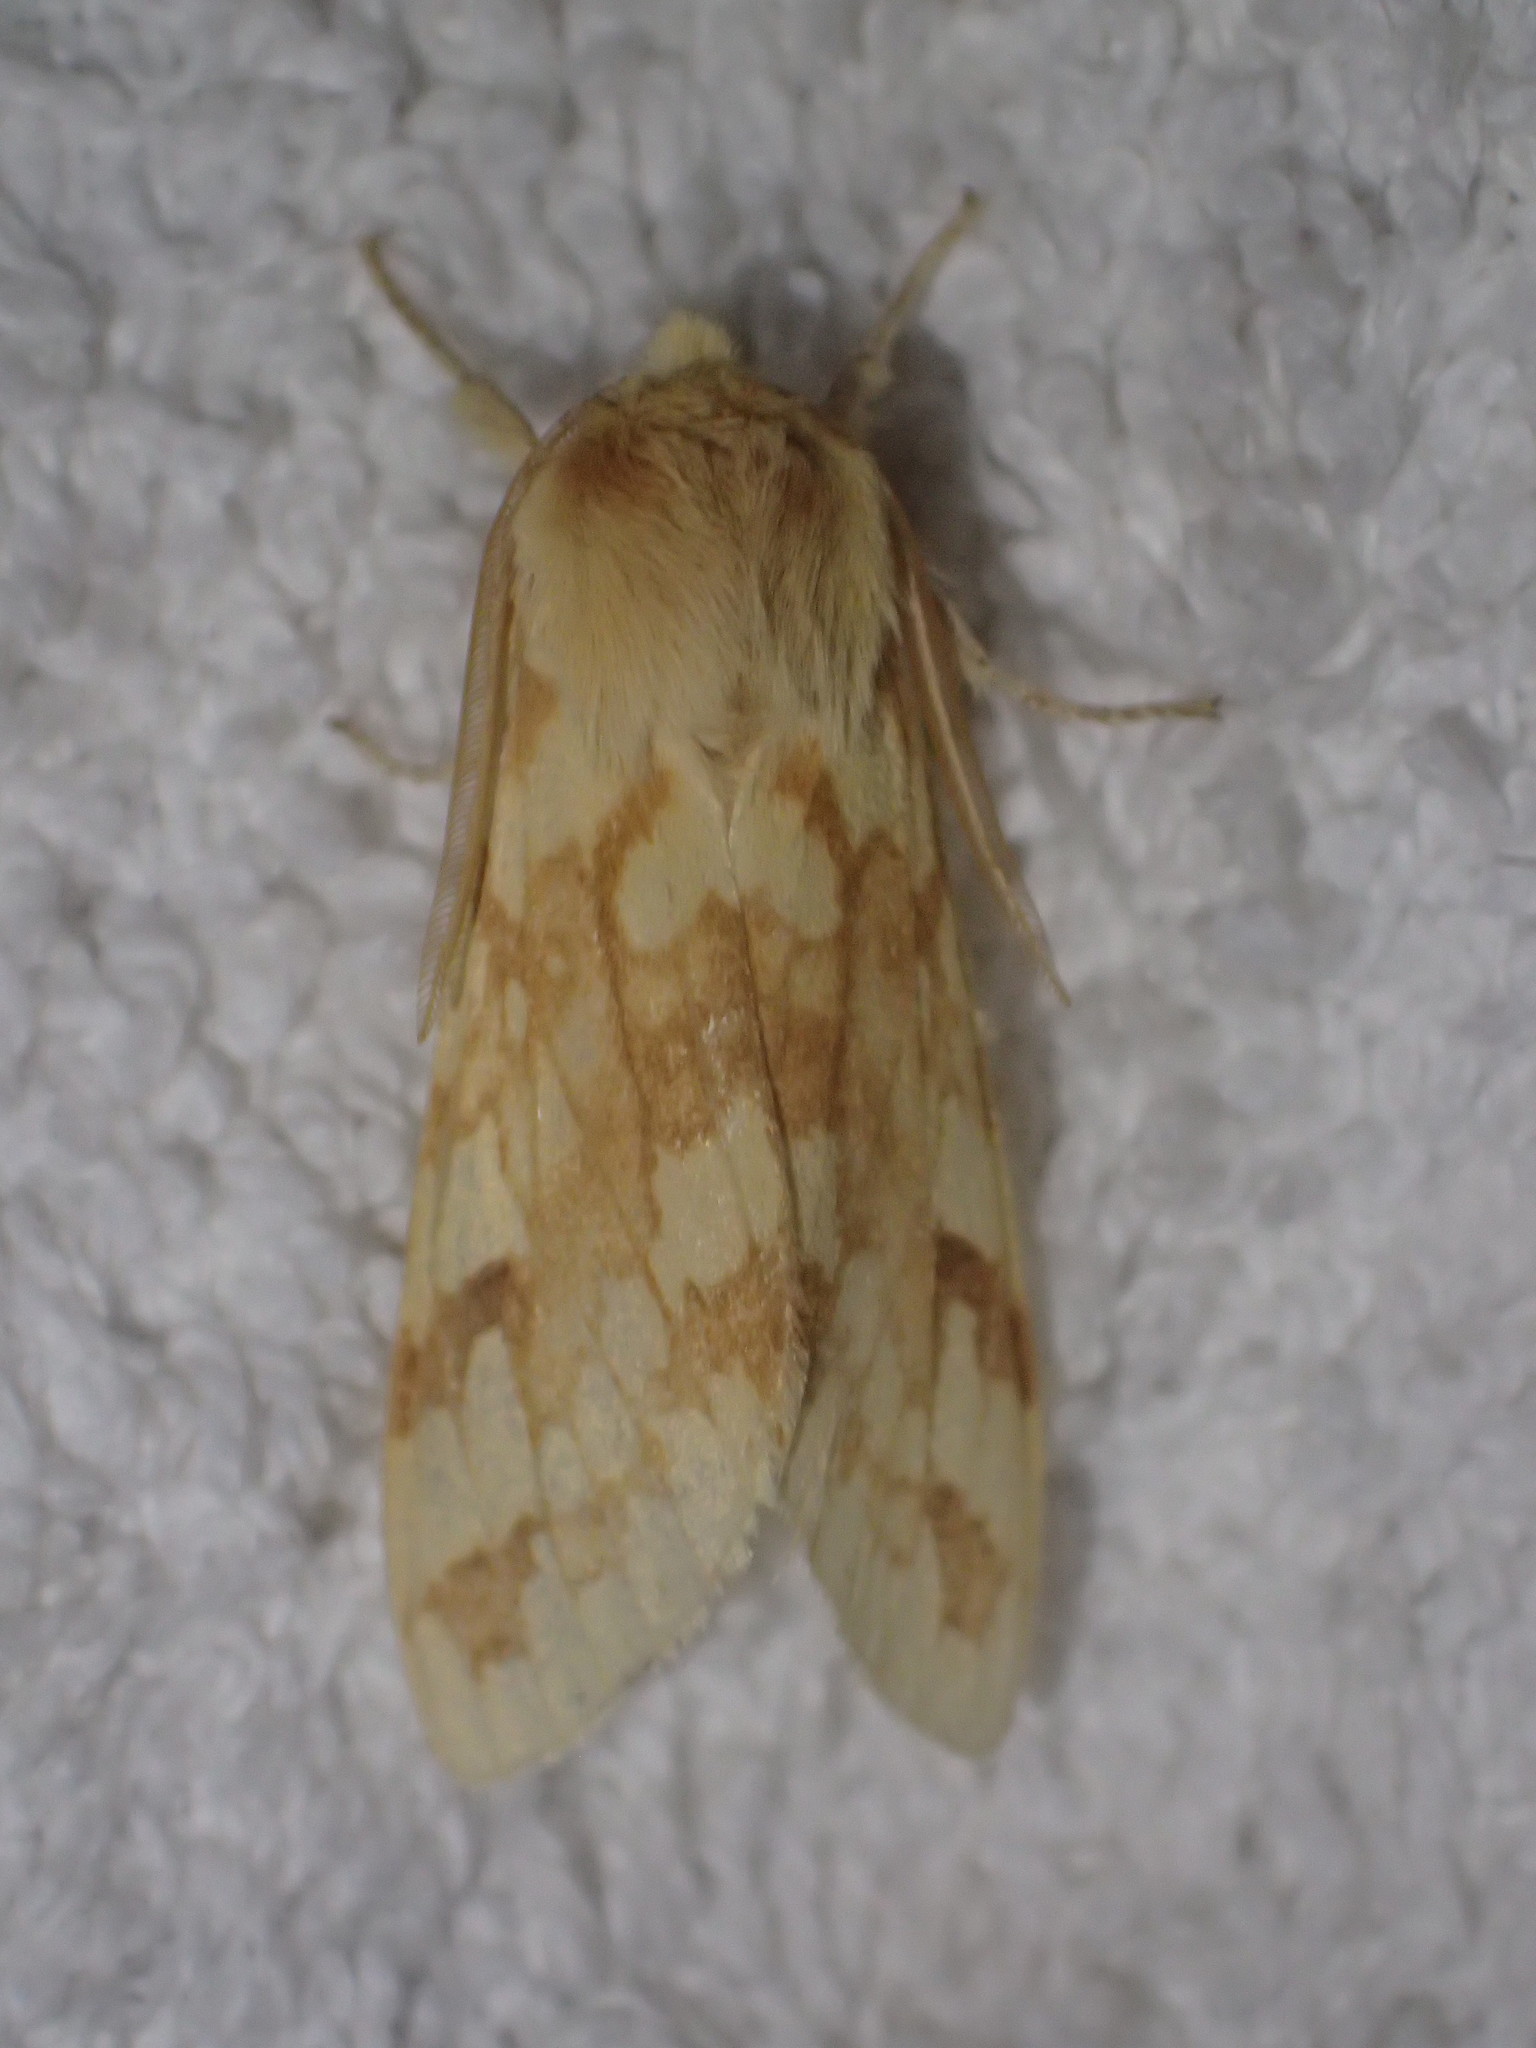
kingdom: Animalia
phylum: Arthropoda
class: Insecta
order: Lepidoptera
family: Erebidae
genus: Lophocampa
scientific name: Lophocampa maculata
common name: Spotted tussock moth
